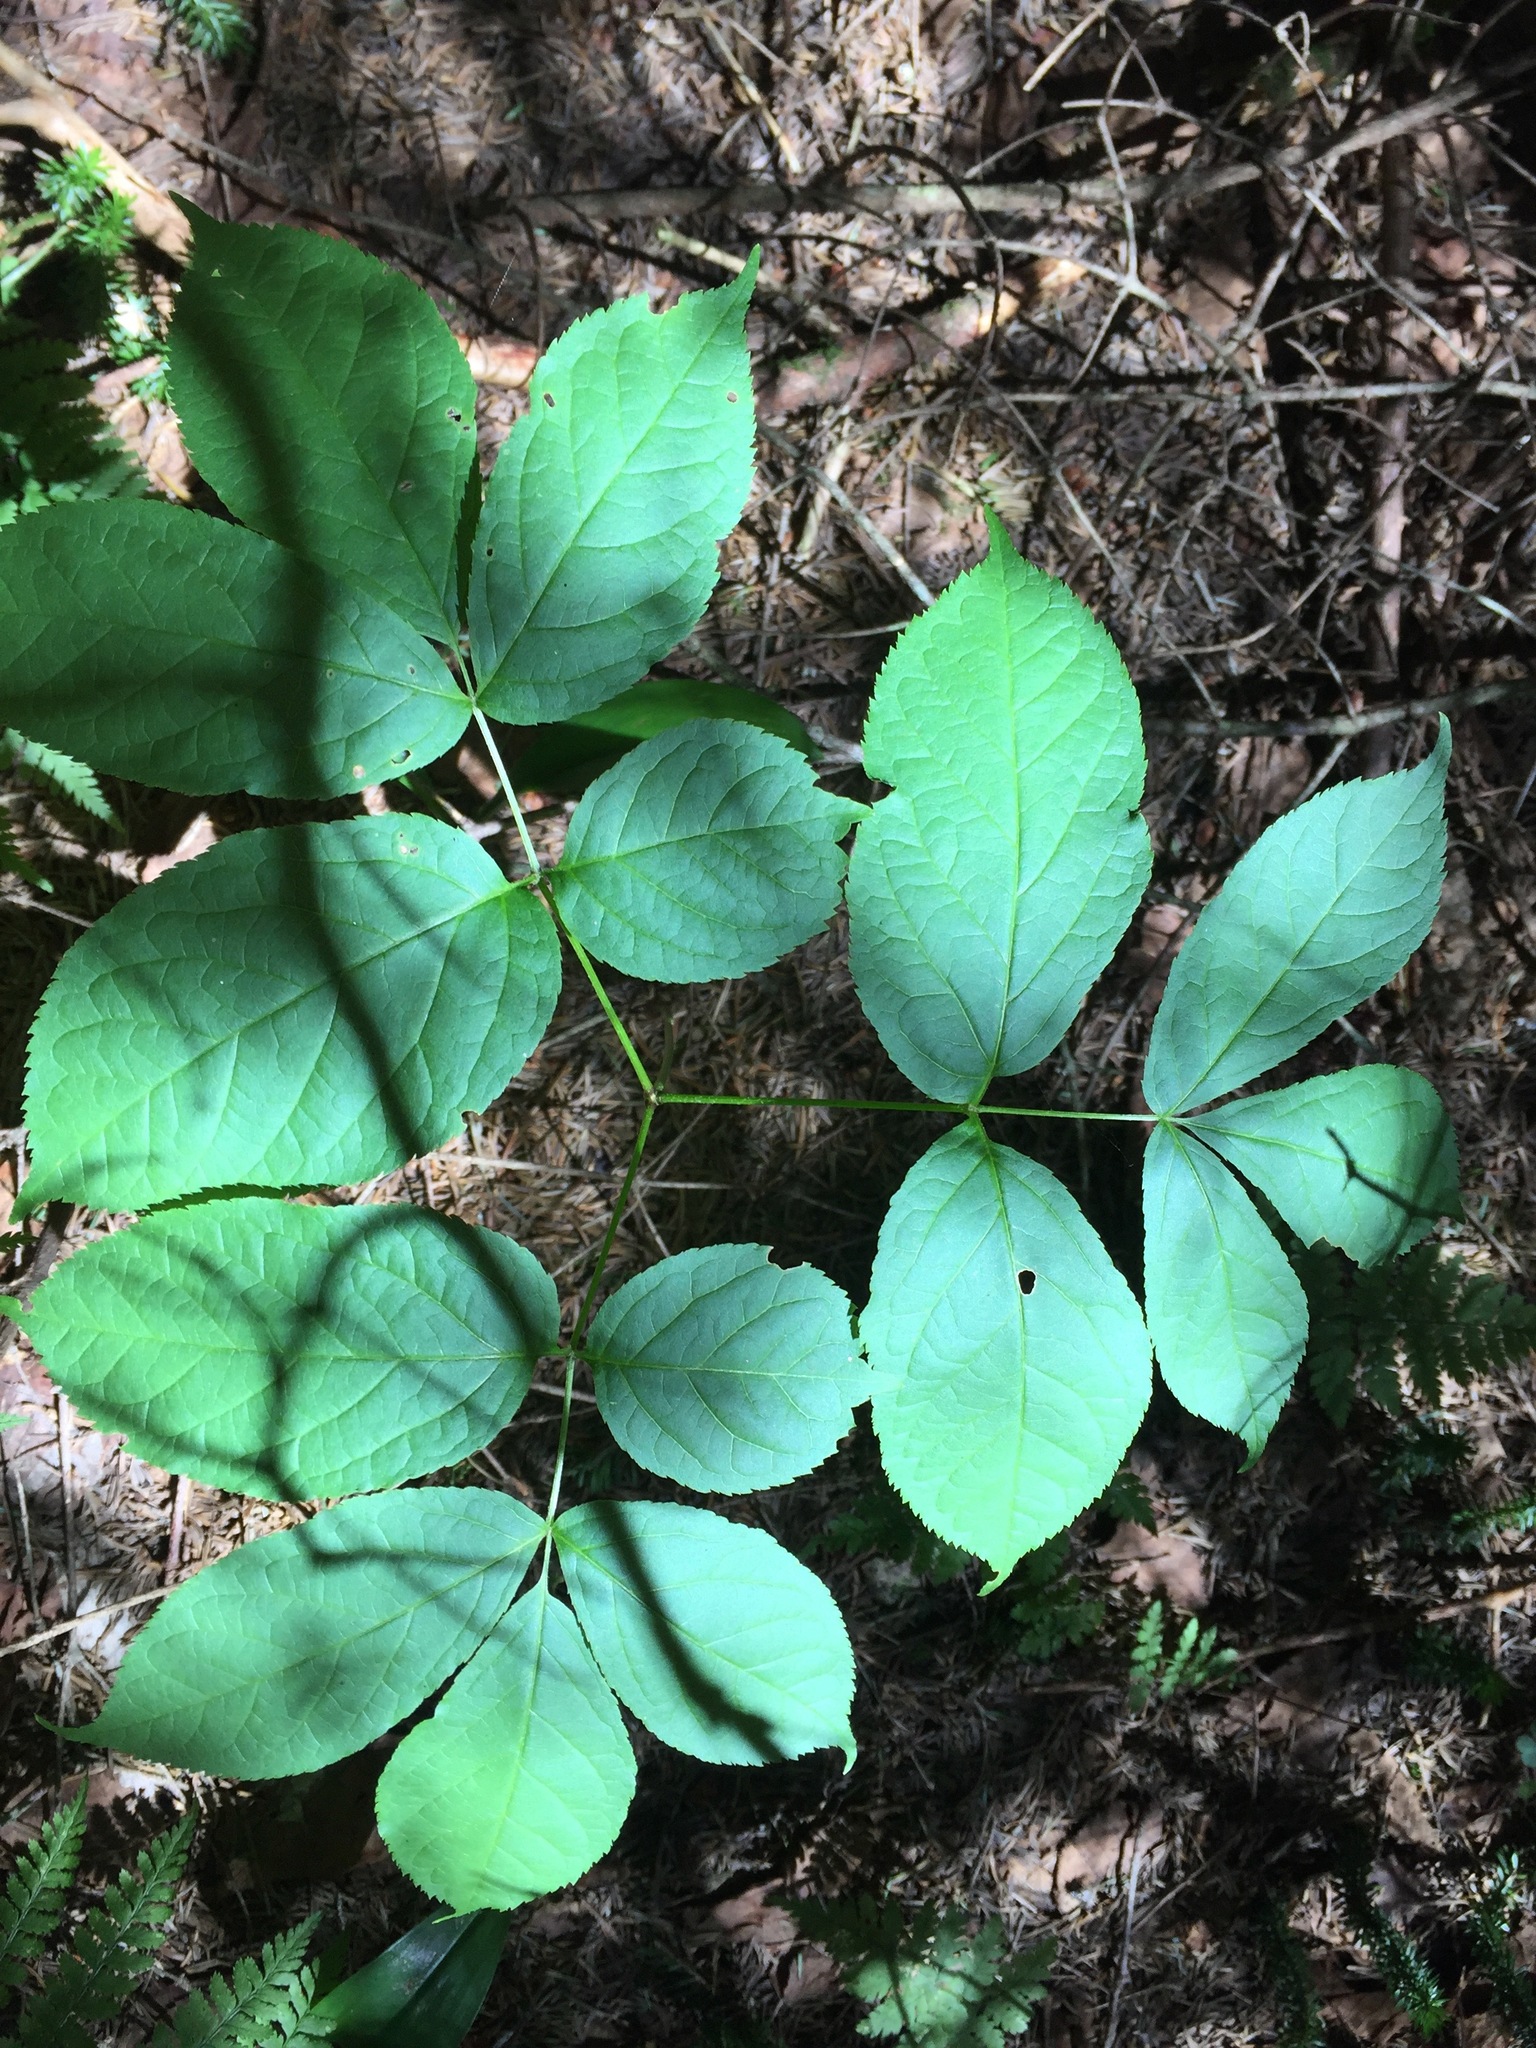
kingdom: Plantae
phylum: Tracheophyta
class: Magnoliopsida
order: Apiales
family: Araliaceae
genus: Aralia
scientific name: Aralia nudicaulis
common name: Wild sarsaparilla
